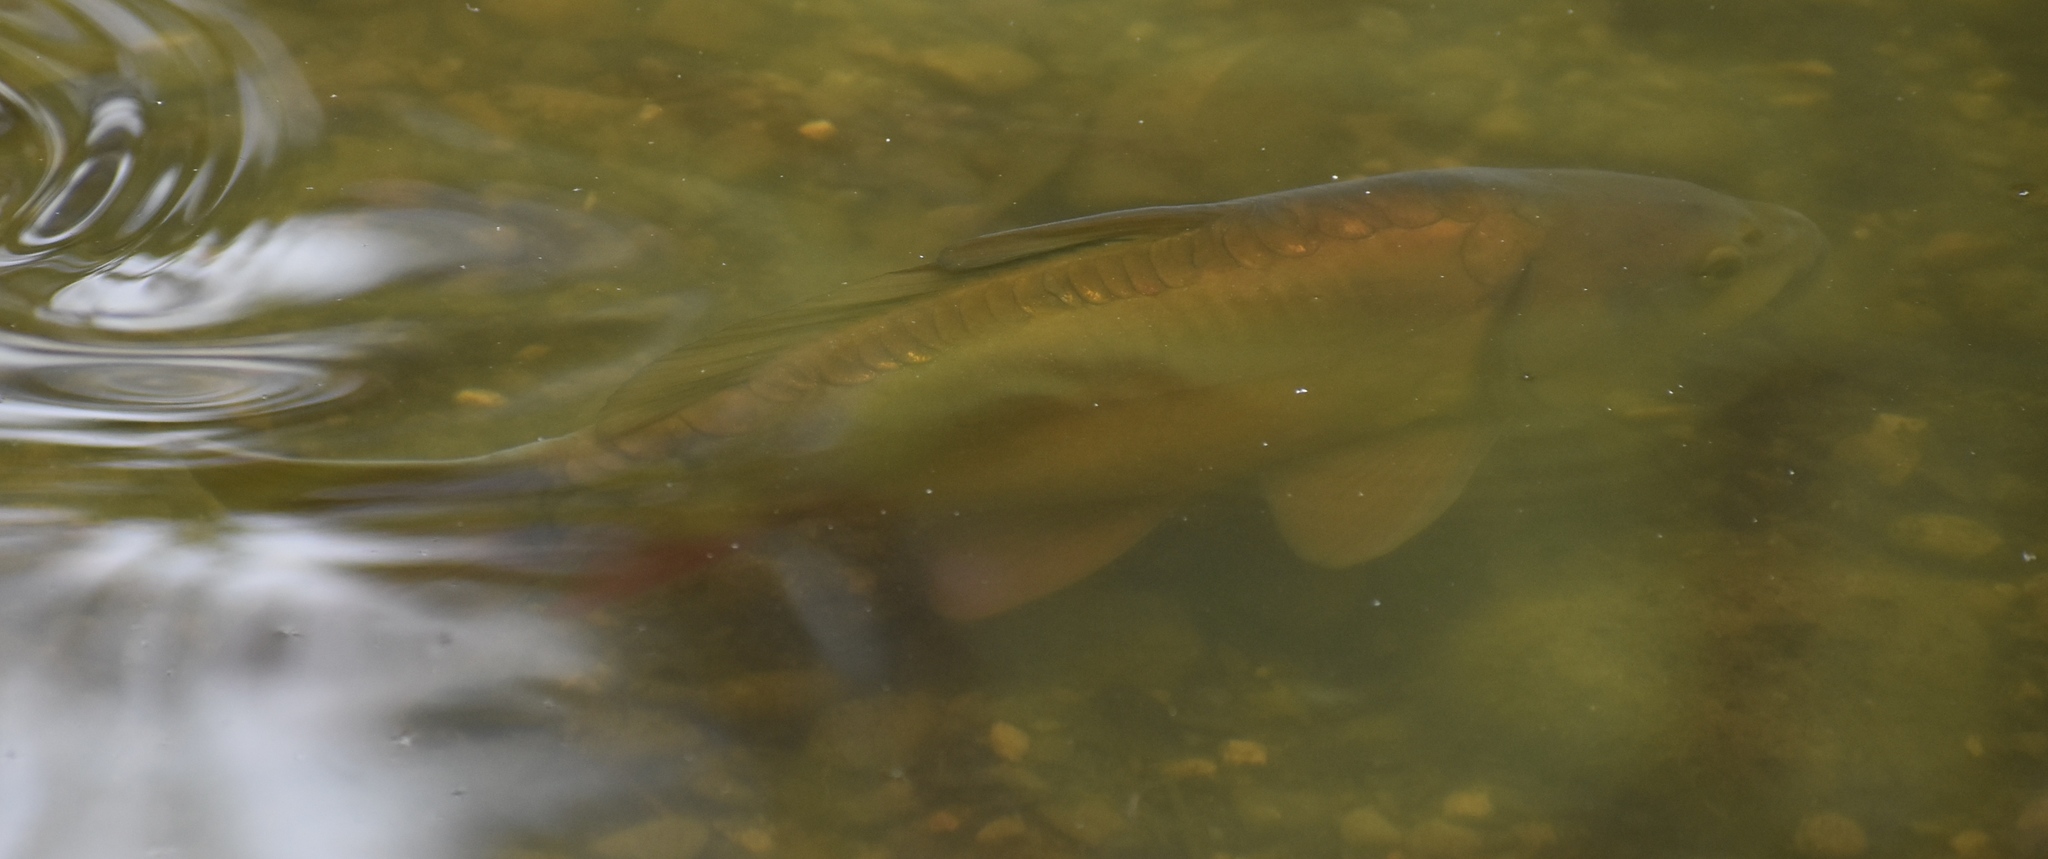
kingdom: Animalia
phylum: Chordata
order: Cypriniformes
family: Cyprinidae
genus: Cyprinus
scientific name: Cyprinus carpio
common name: Common carp
